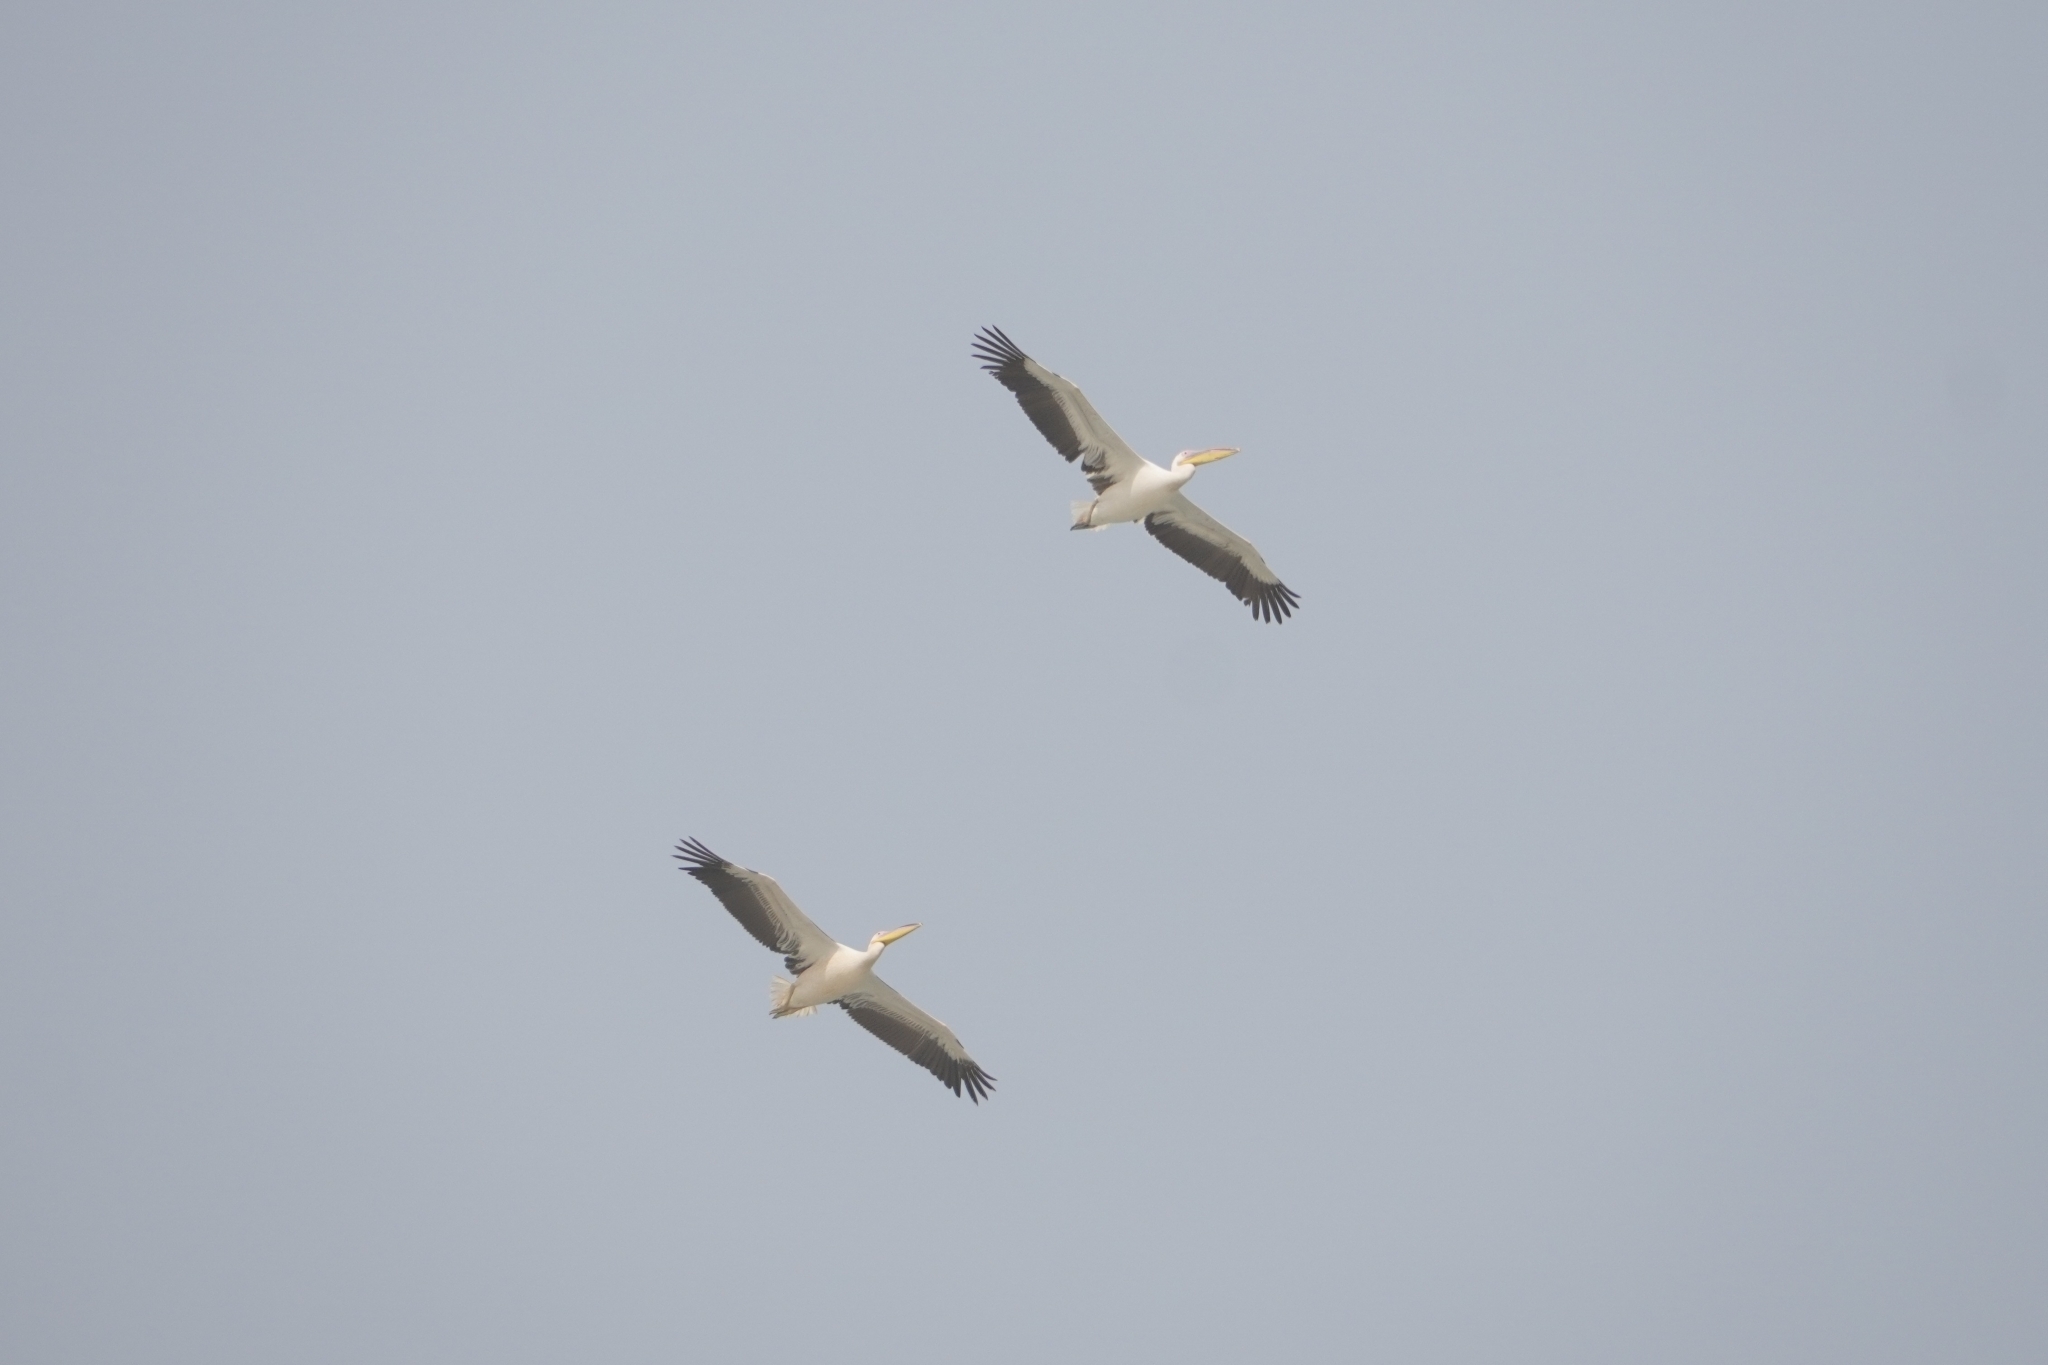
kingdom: Animalia
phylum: Chordata
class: Aves
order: Pelecaniformes
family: Pelecanidae
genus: Pelecanus
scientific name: Pelecanus onocrotalus
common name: Great white pelican
